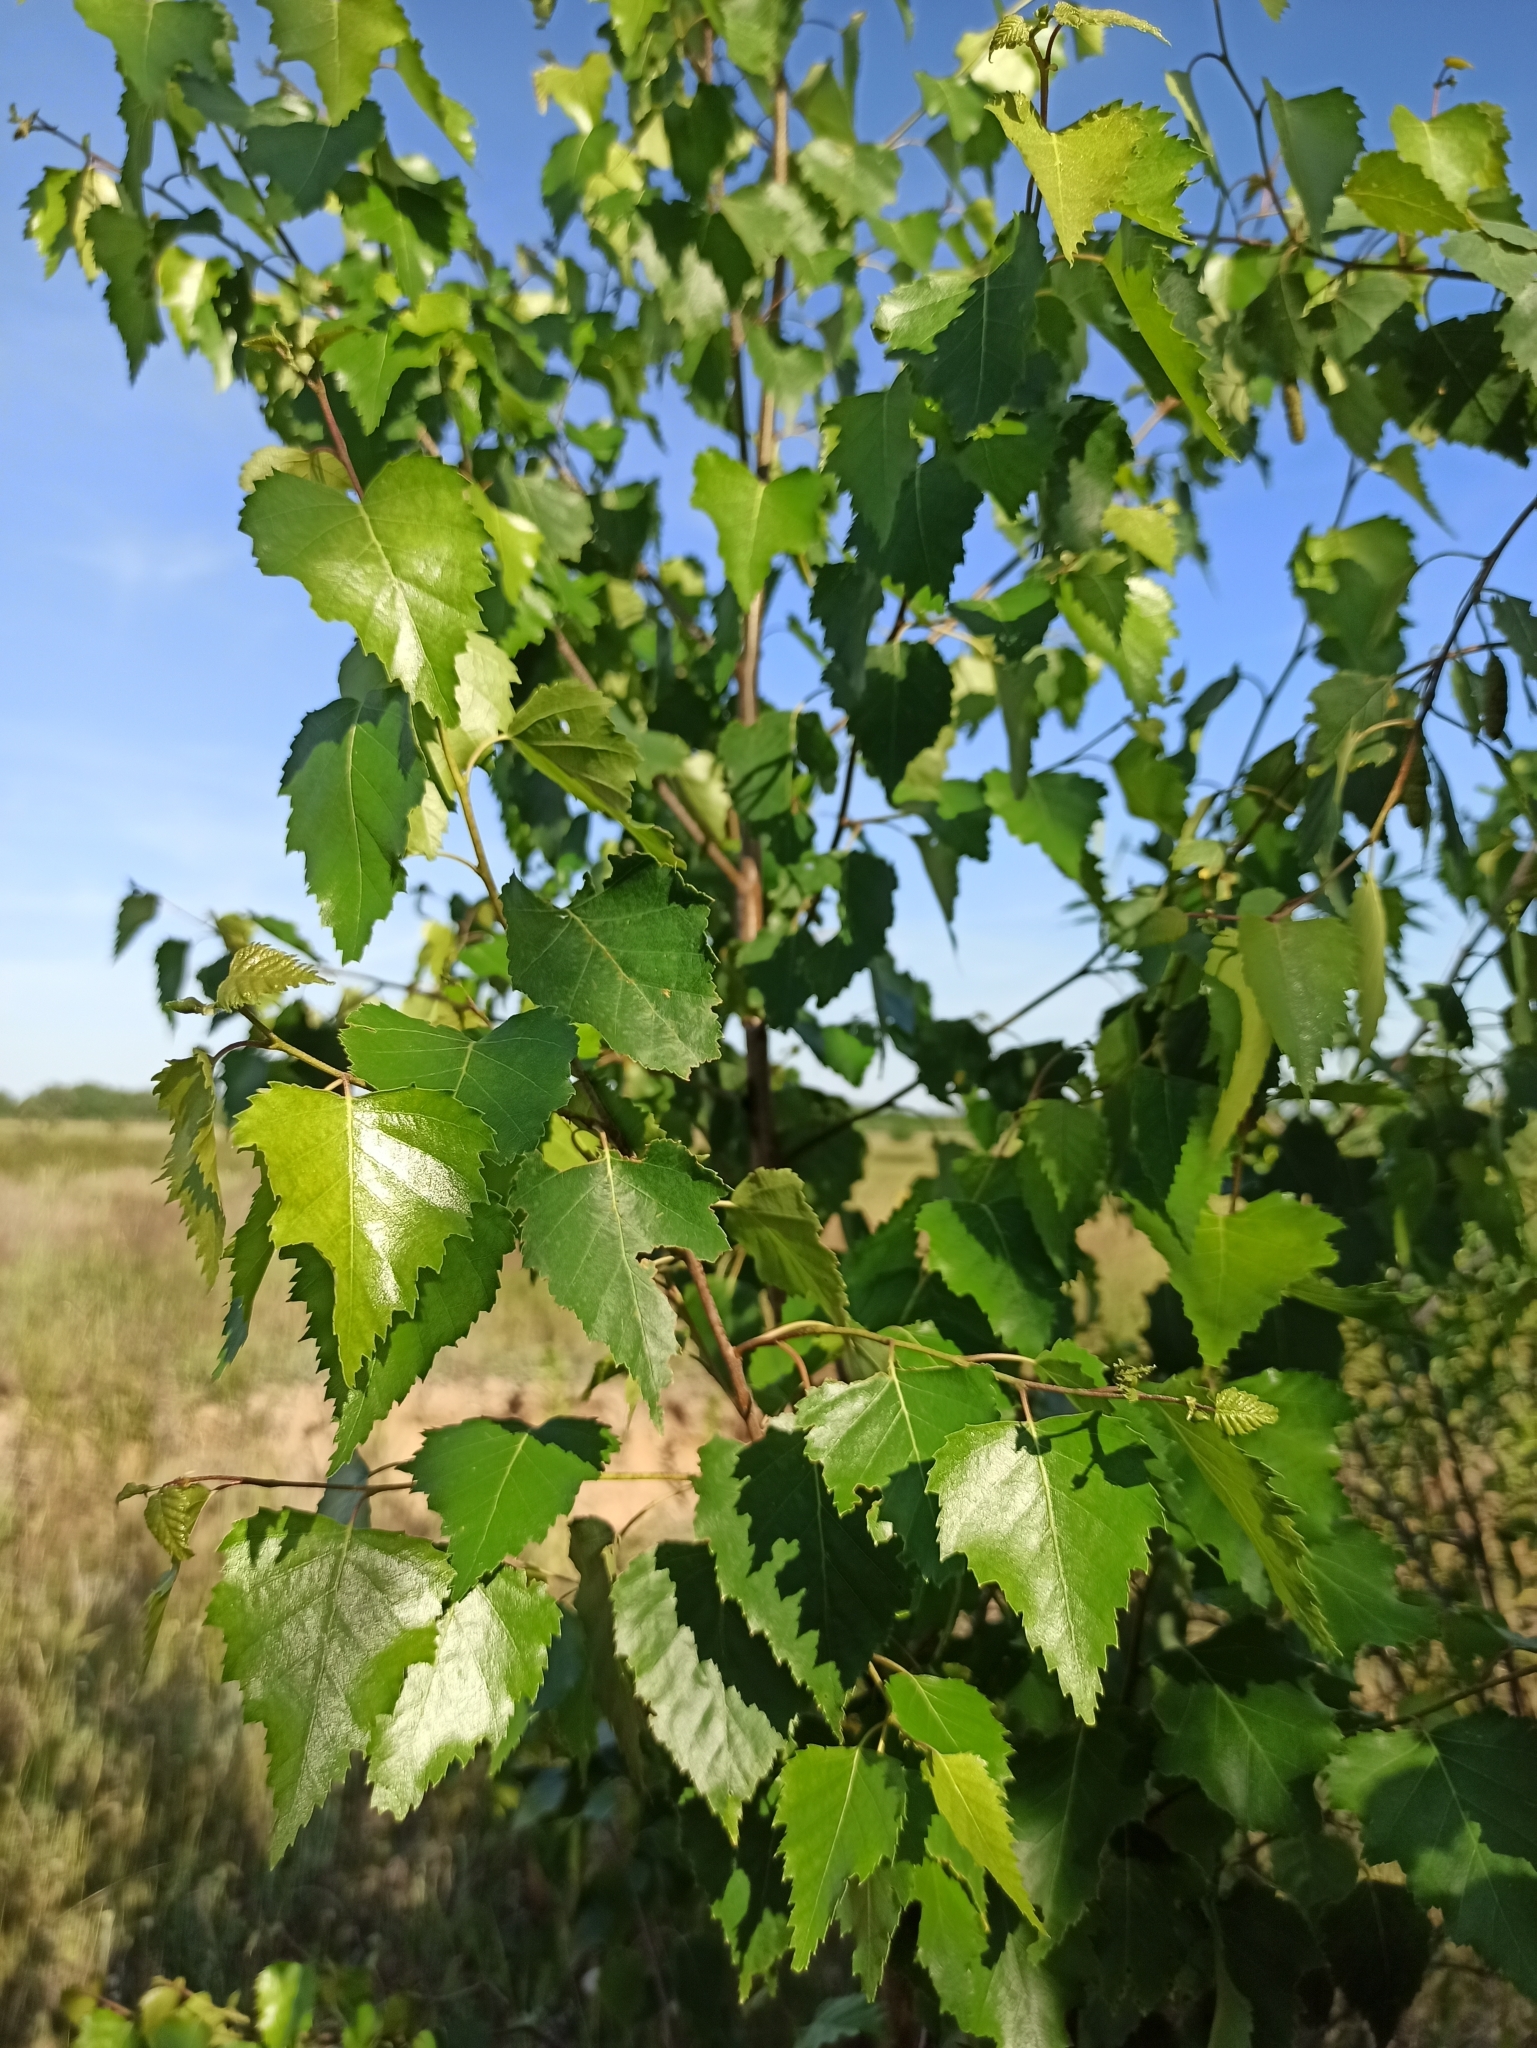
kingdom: Plantae
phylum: Tracheophyta
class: Magnoliopsida
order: Fagales
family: Betulaceae
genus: Betula
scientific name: Betula pendula
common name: Silver birch
